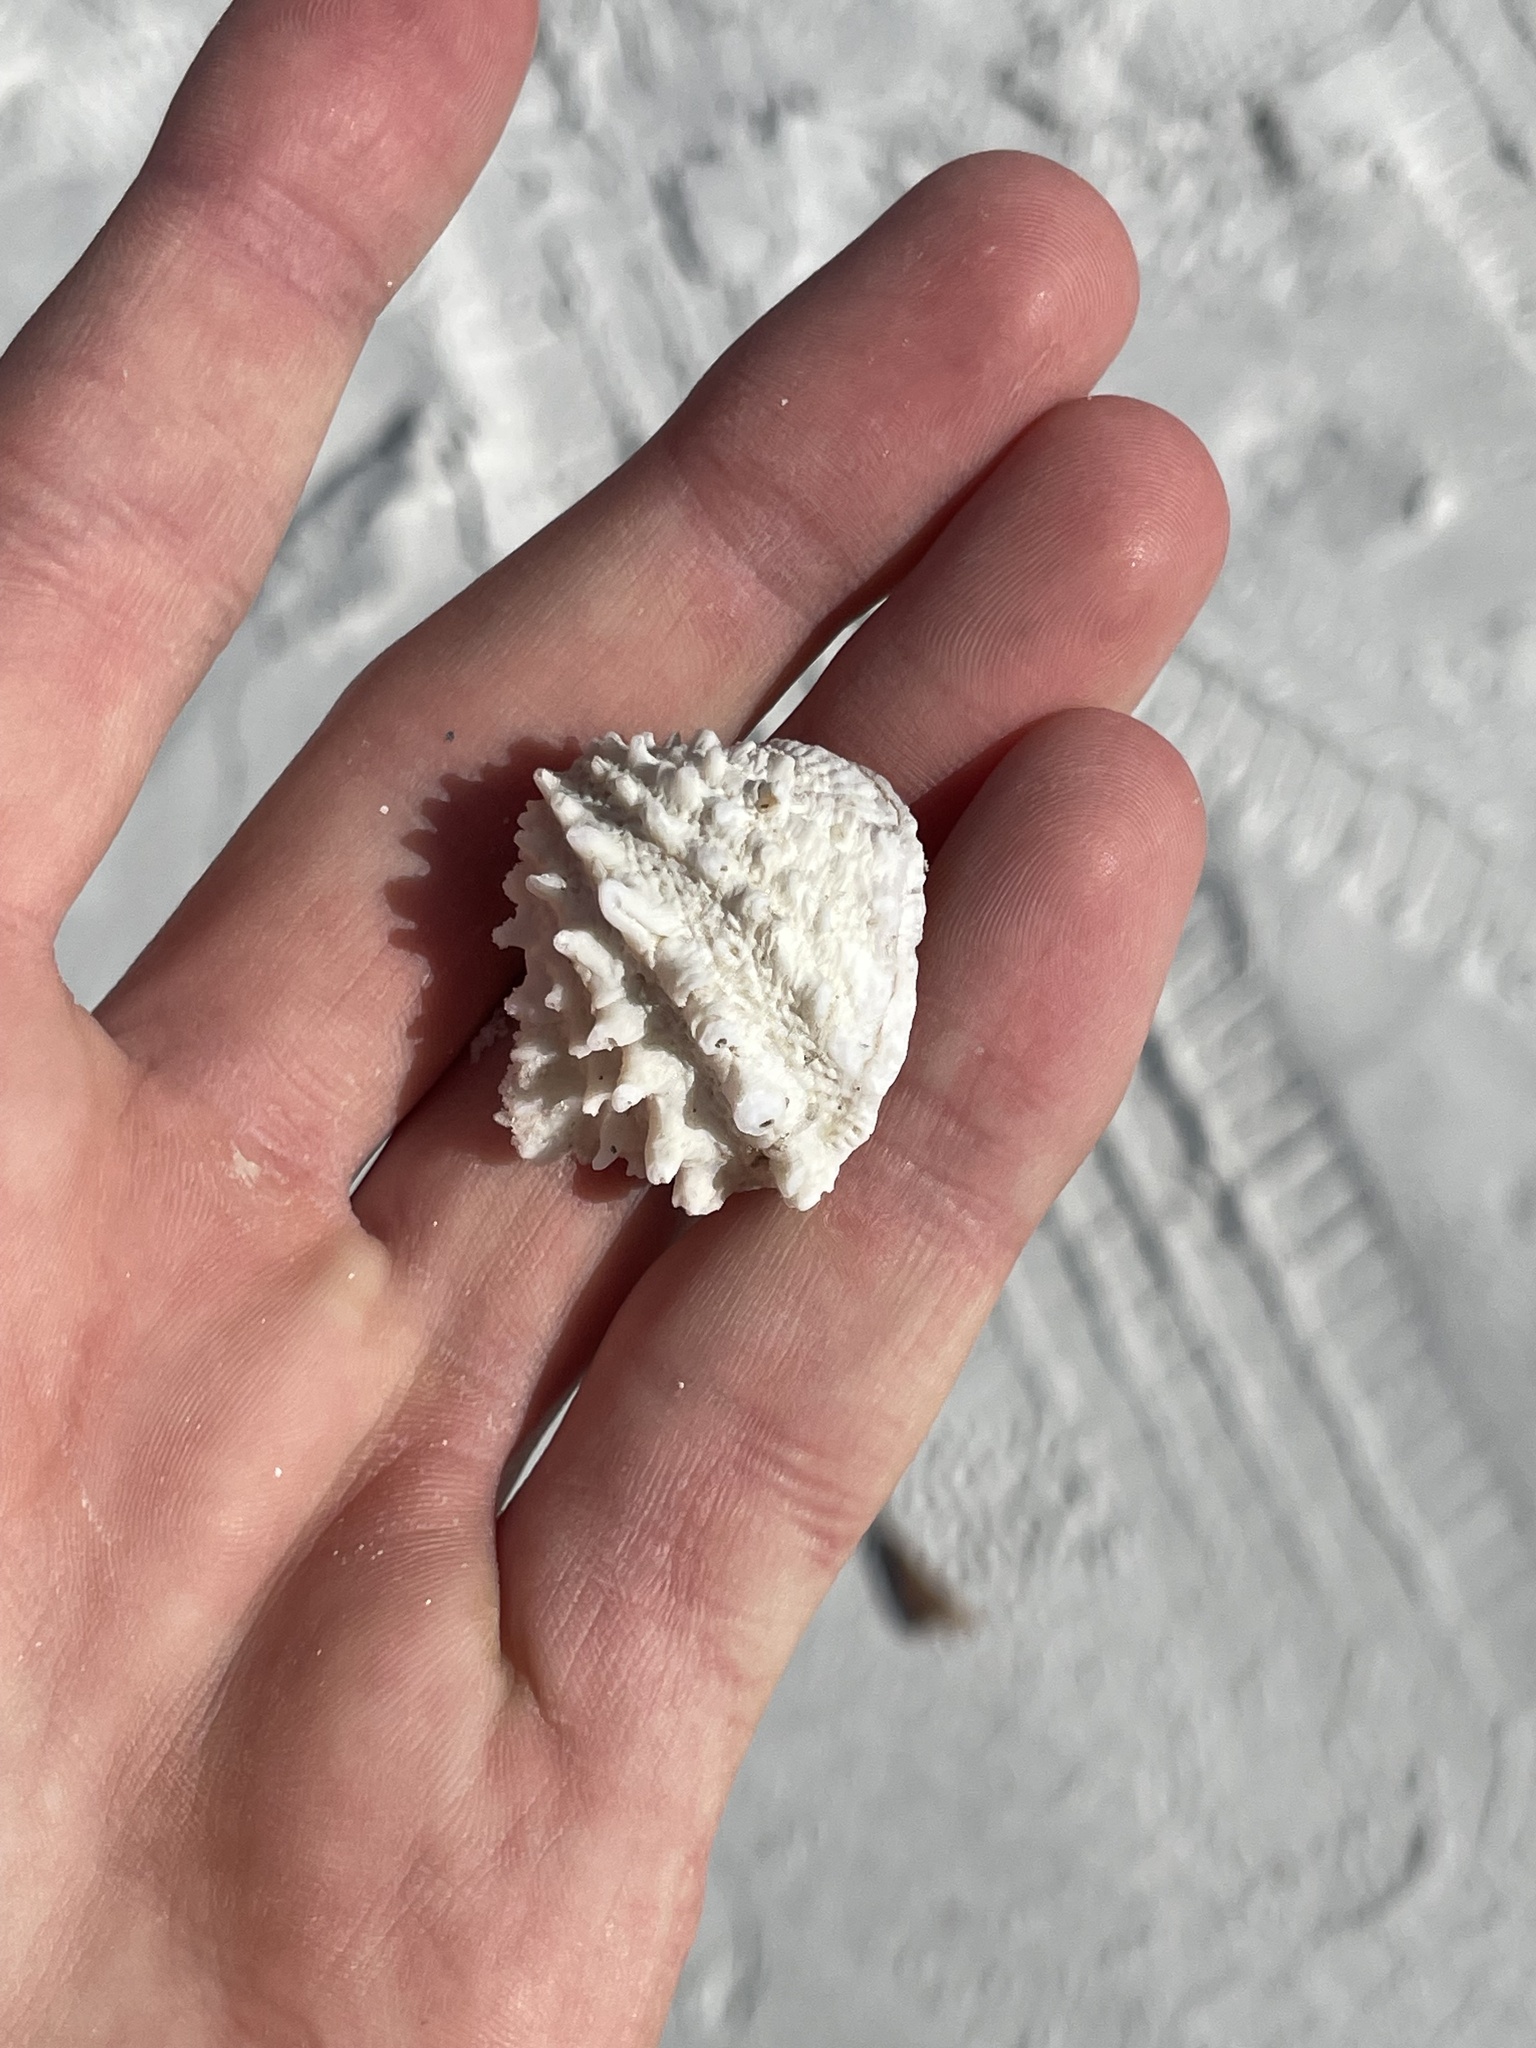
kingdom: Animalia
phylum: Mollusca
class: Bivalvia
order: Venerida
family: Chamidae
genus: Arcinella
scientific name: Arcinella cornuta
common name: Florida spiny jewel box
